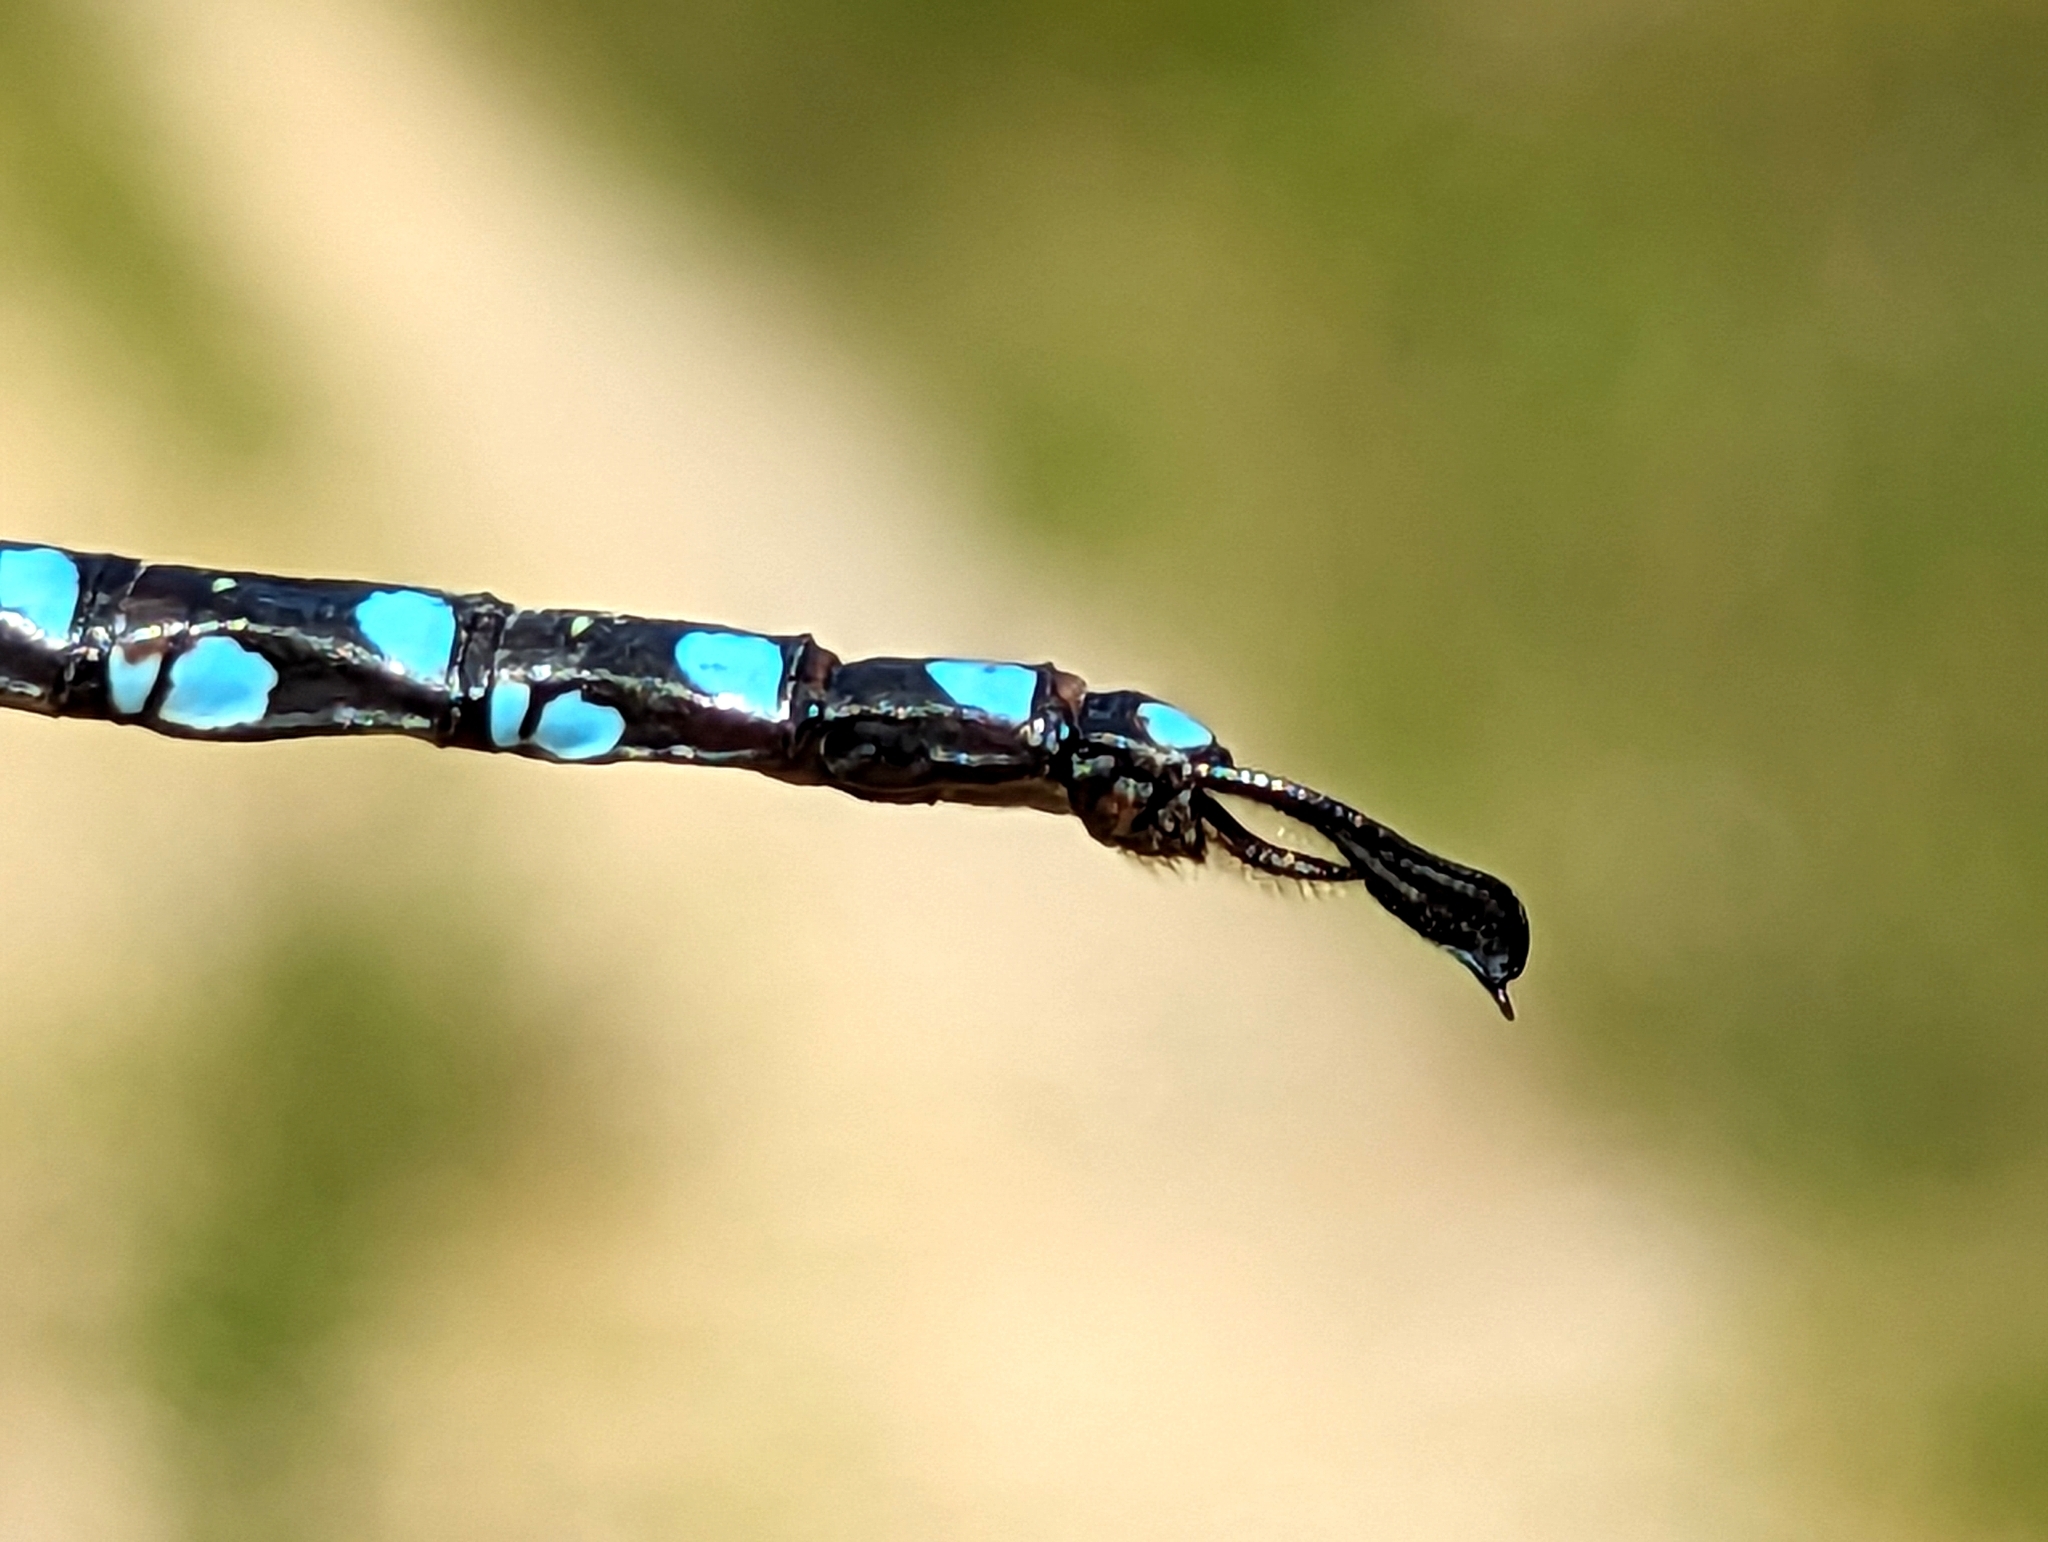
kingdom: Animalia
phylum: Arthropoda
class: Insecta
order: Odonata
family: Aeshnidae
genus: Aeshna
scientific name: Aeshna constricta
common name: Lance-tipped darner
